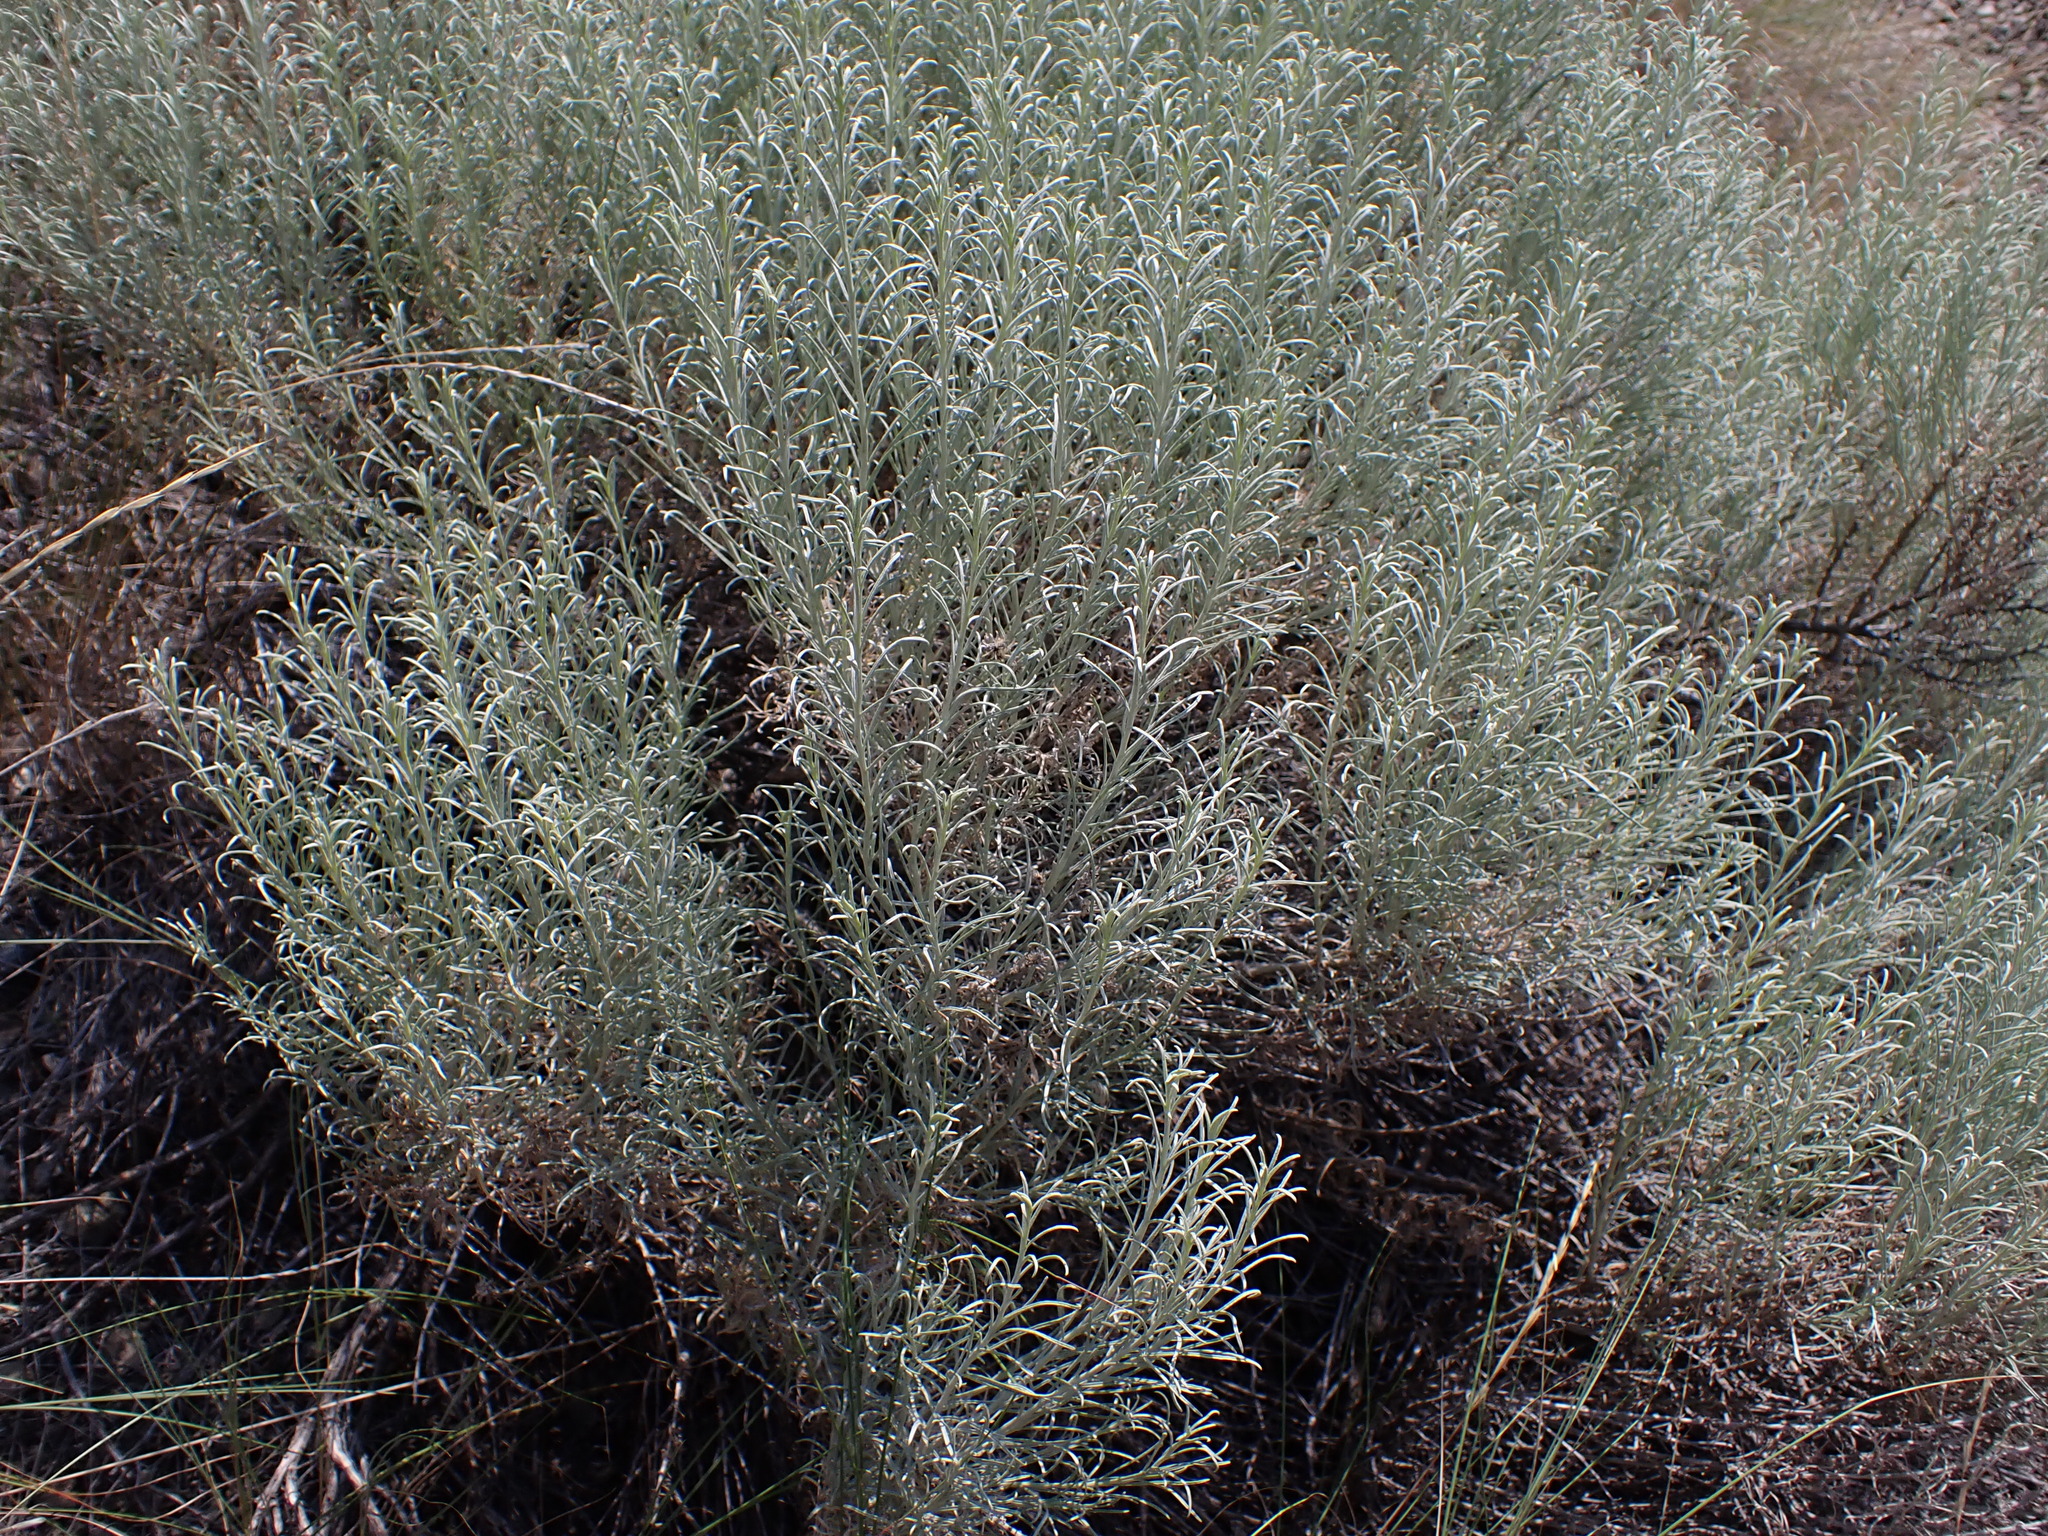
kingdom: Plantae
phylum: Tracheophyta
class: Magnoliopsida
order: Asterales
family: Asteraceae
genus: Ericameria
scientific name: Ericameria nauseosa
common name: Rubber rabbitbrush
